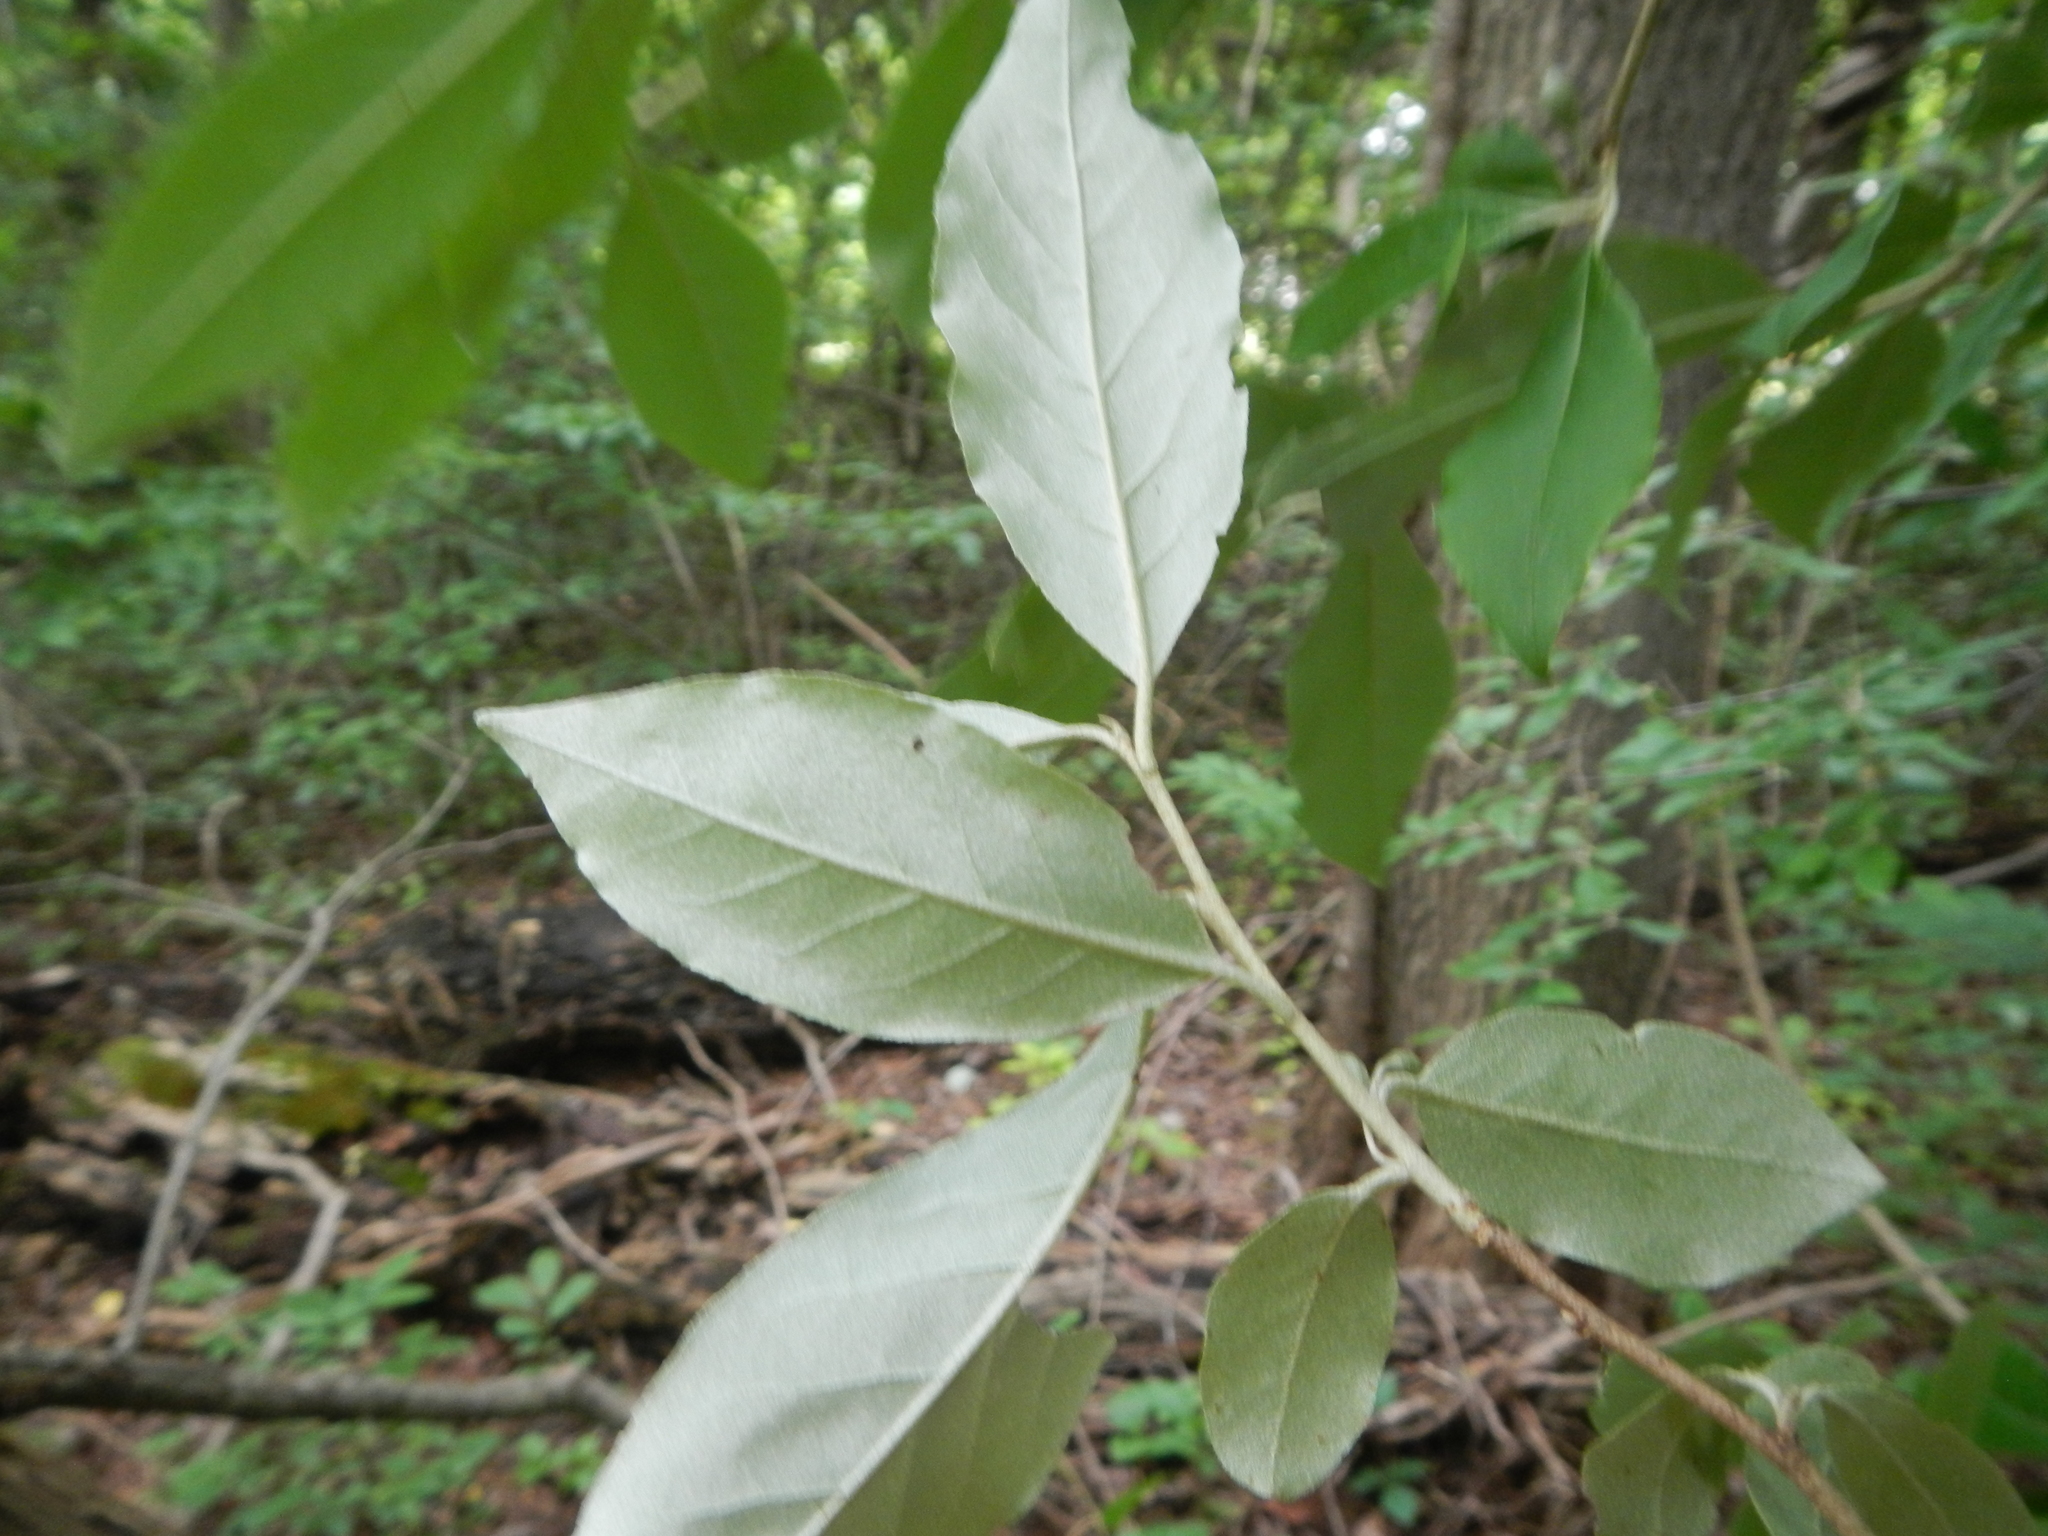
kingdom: Plantae
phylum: Tracheophyta
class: Magnoliopsida
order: Rosales
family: Elaeagnaceae
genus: Elaeagnus
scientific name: Elaeagnus umbellata
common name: Autumn olive
